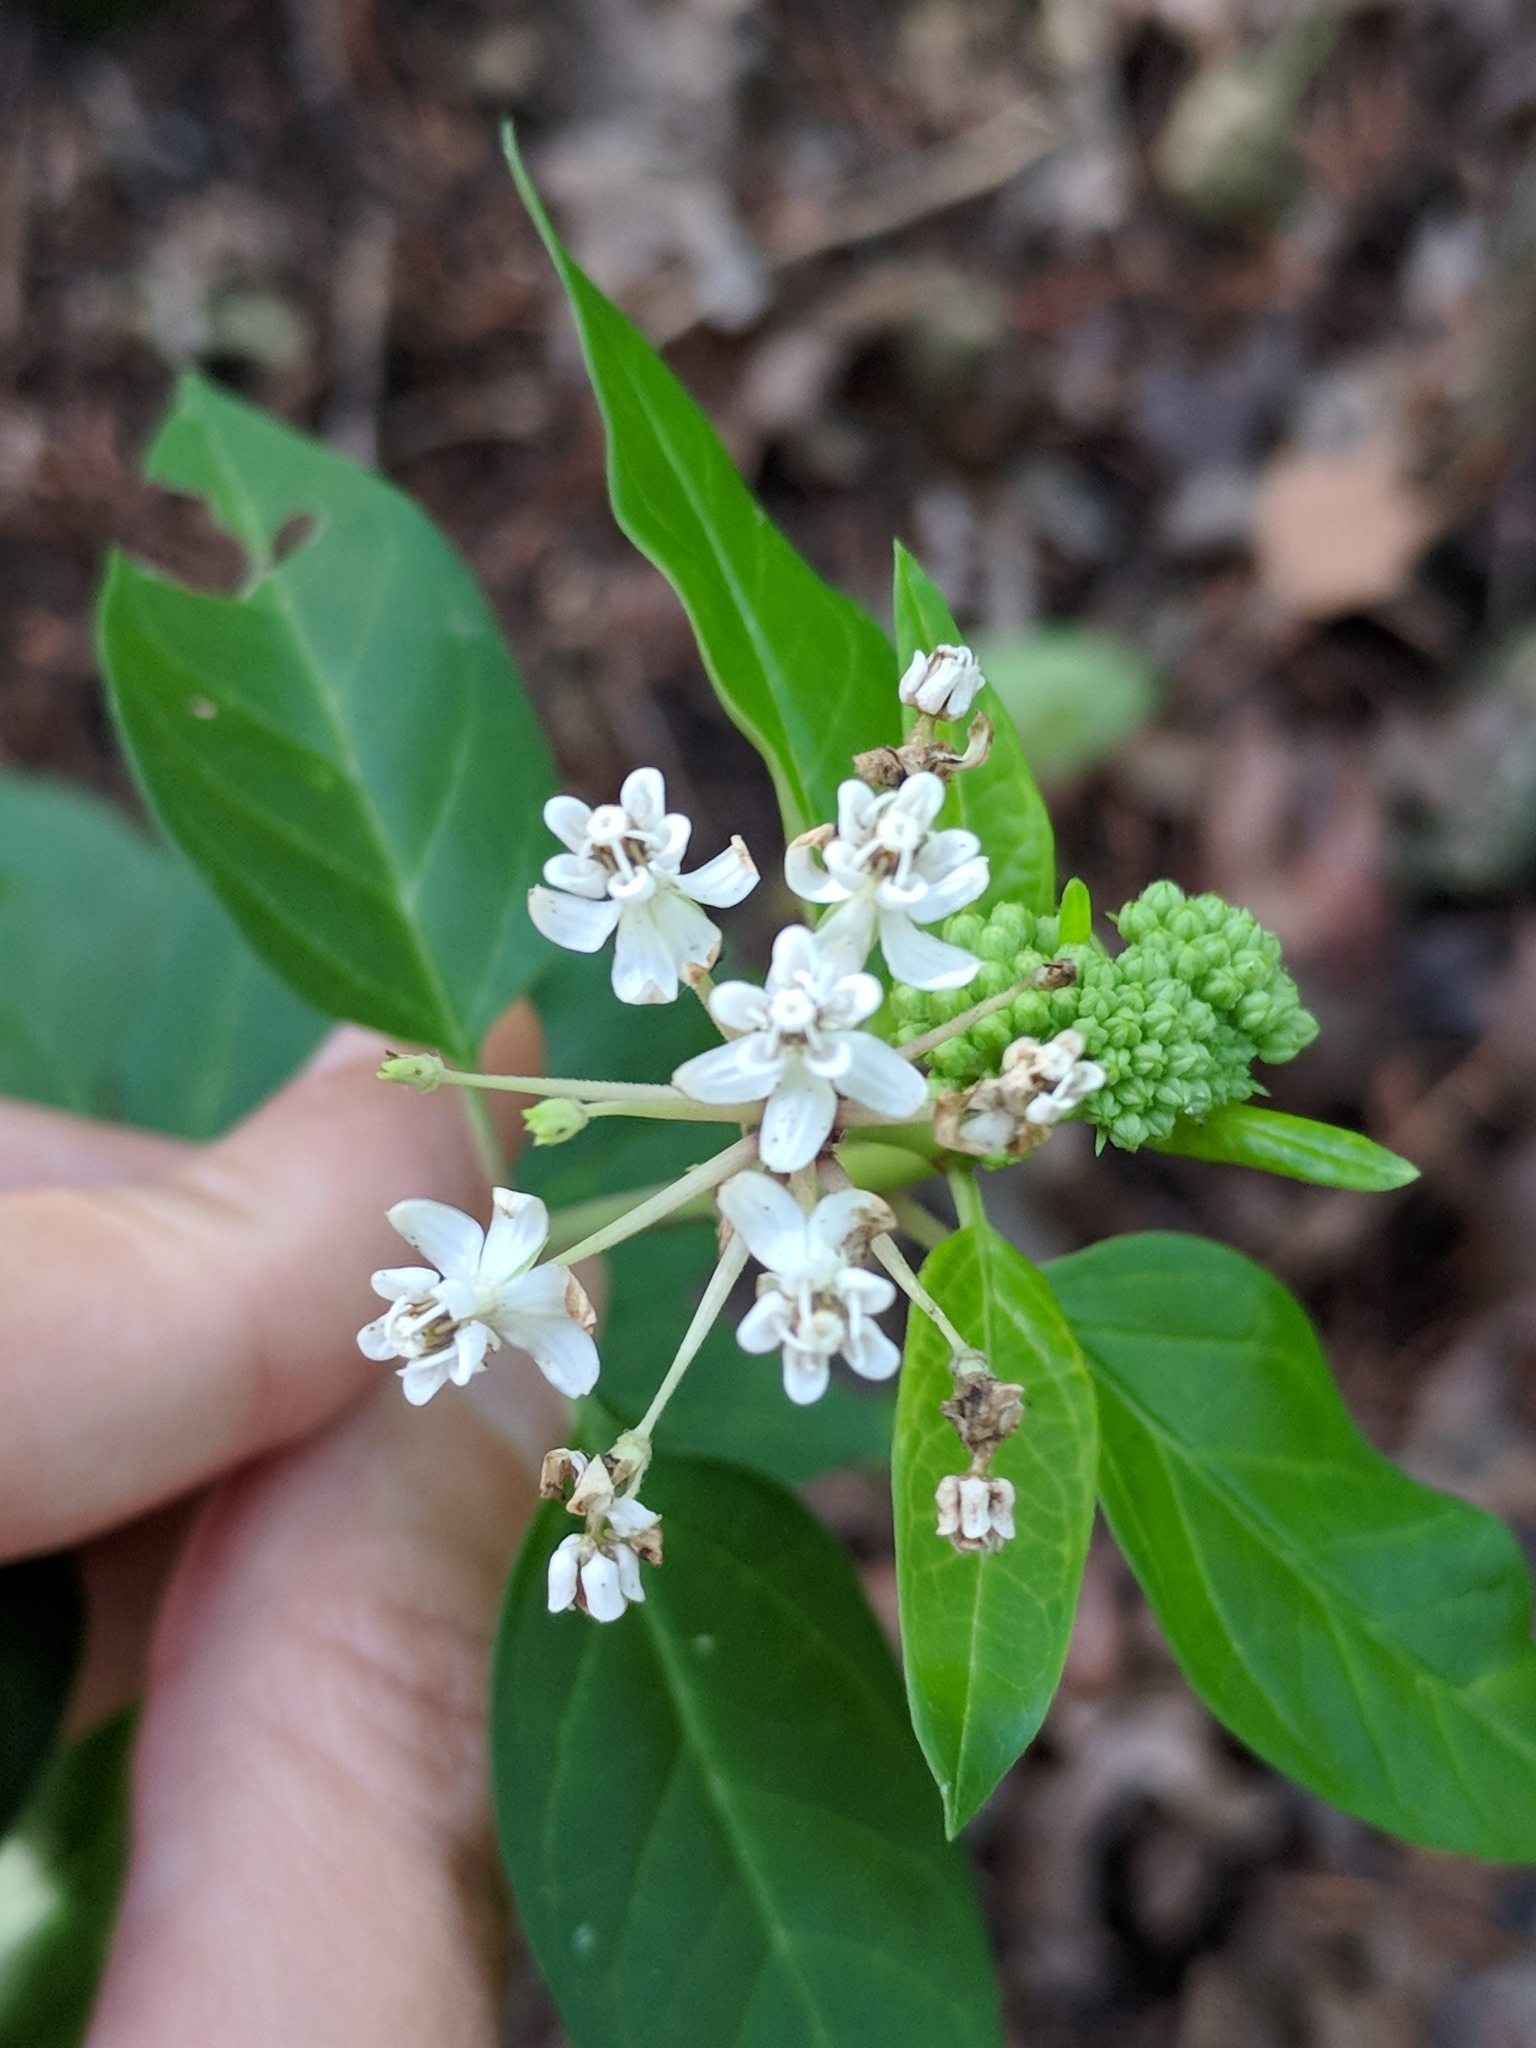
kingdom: Plantae
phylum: Tracheophyta
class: Magnoliopsida
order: Gentianales
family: Apocynaceae
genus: Asclepias
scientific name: Asclepias texana
